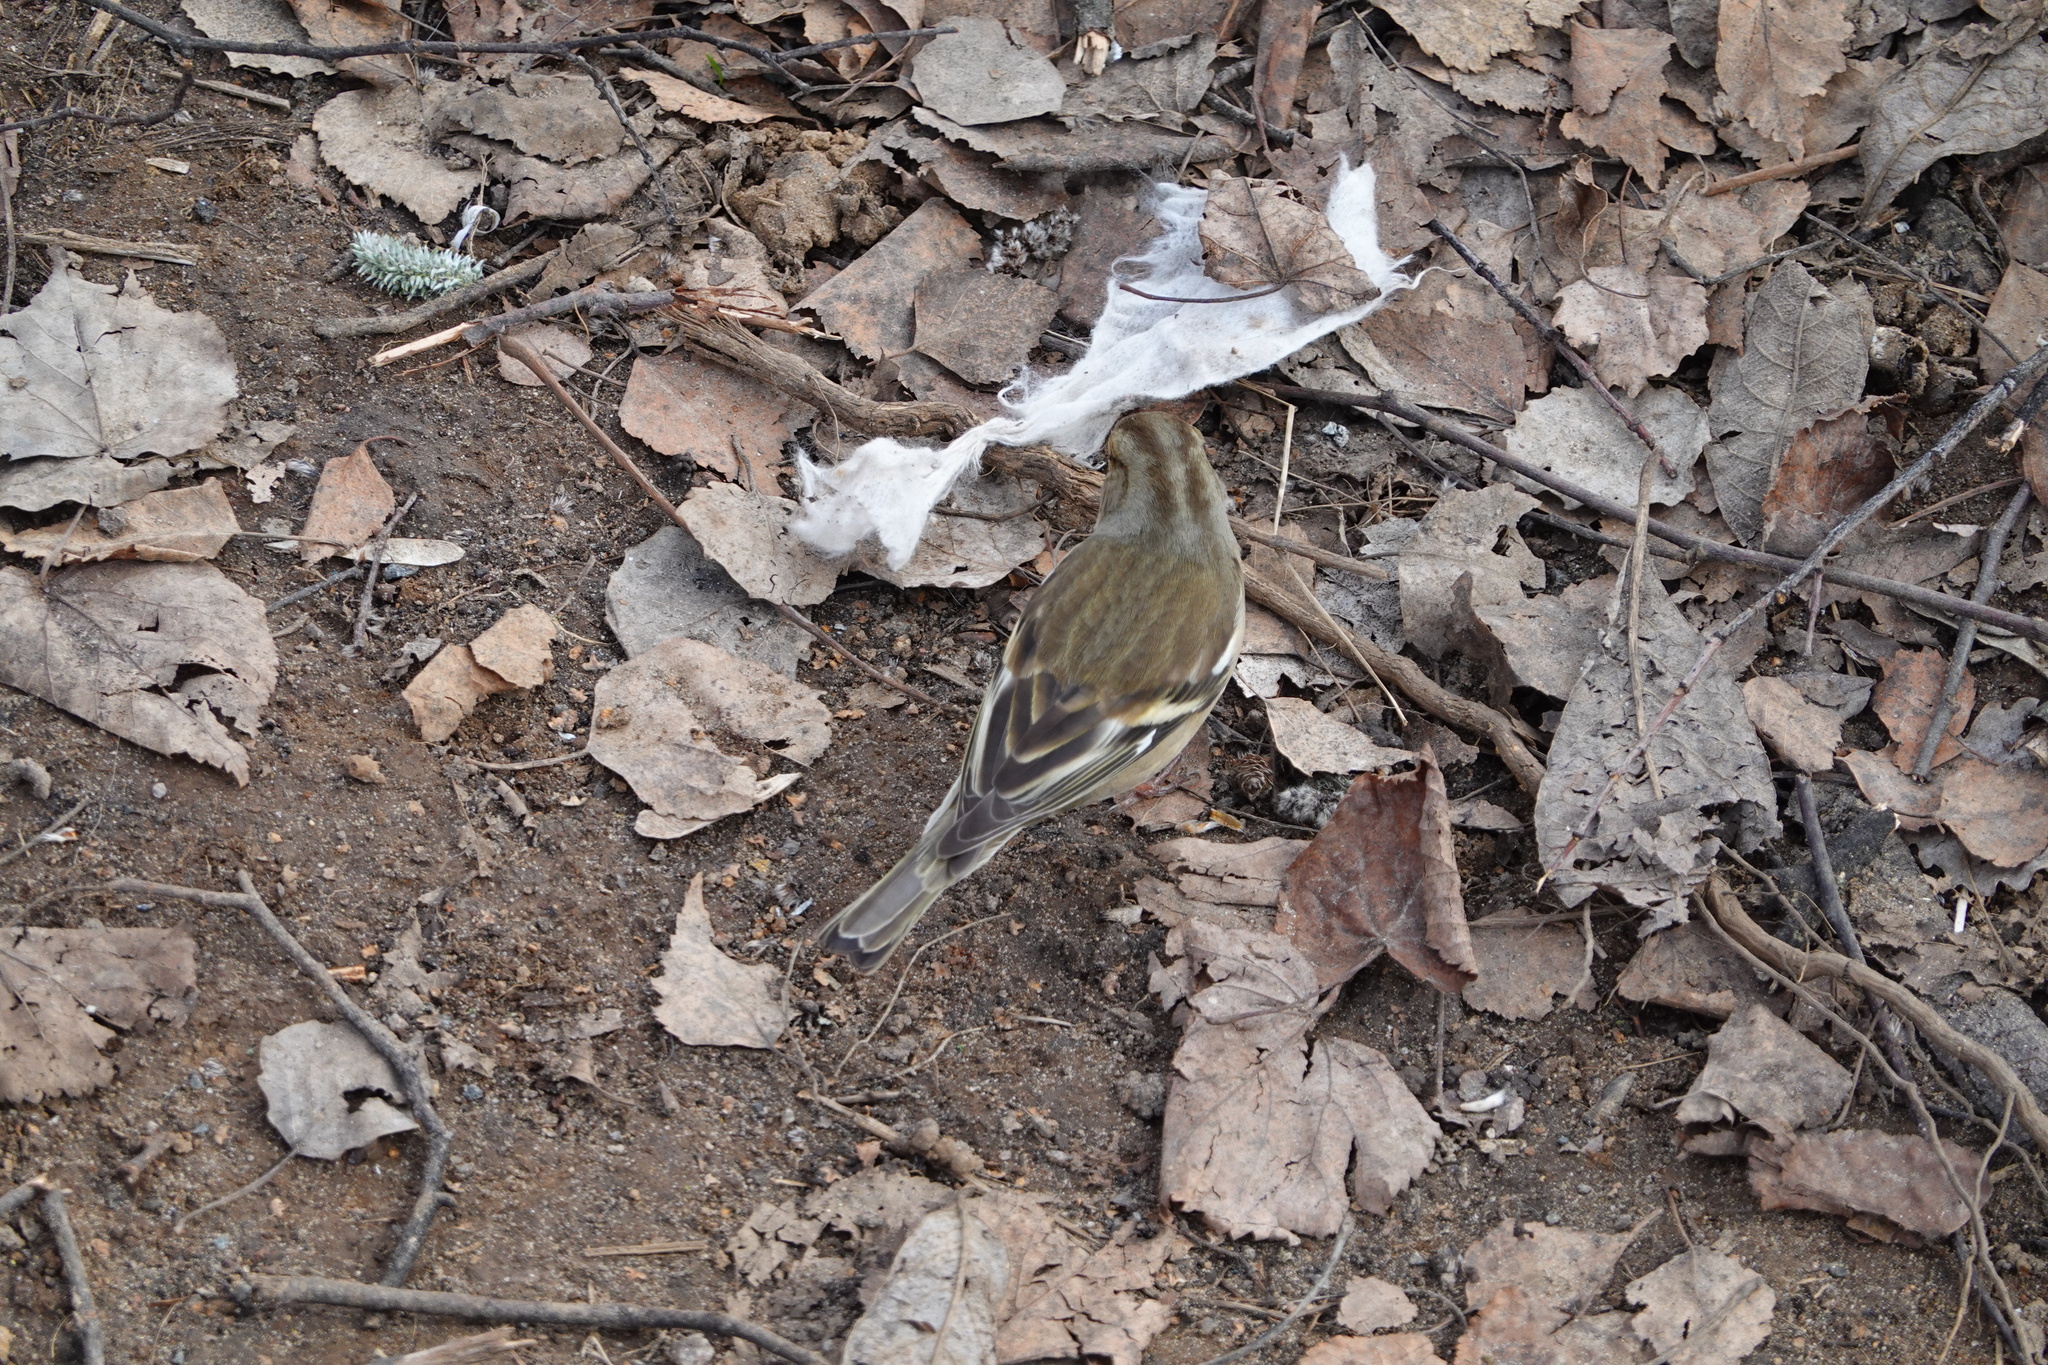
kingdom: Animalia
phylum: Chordata
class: Aves
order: Passeriformes
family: Fringillidae
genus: Fringilla
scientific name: Fringilla coelebs
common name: Common chaffinch
